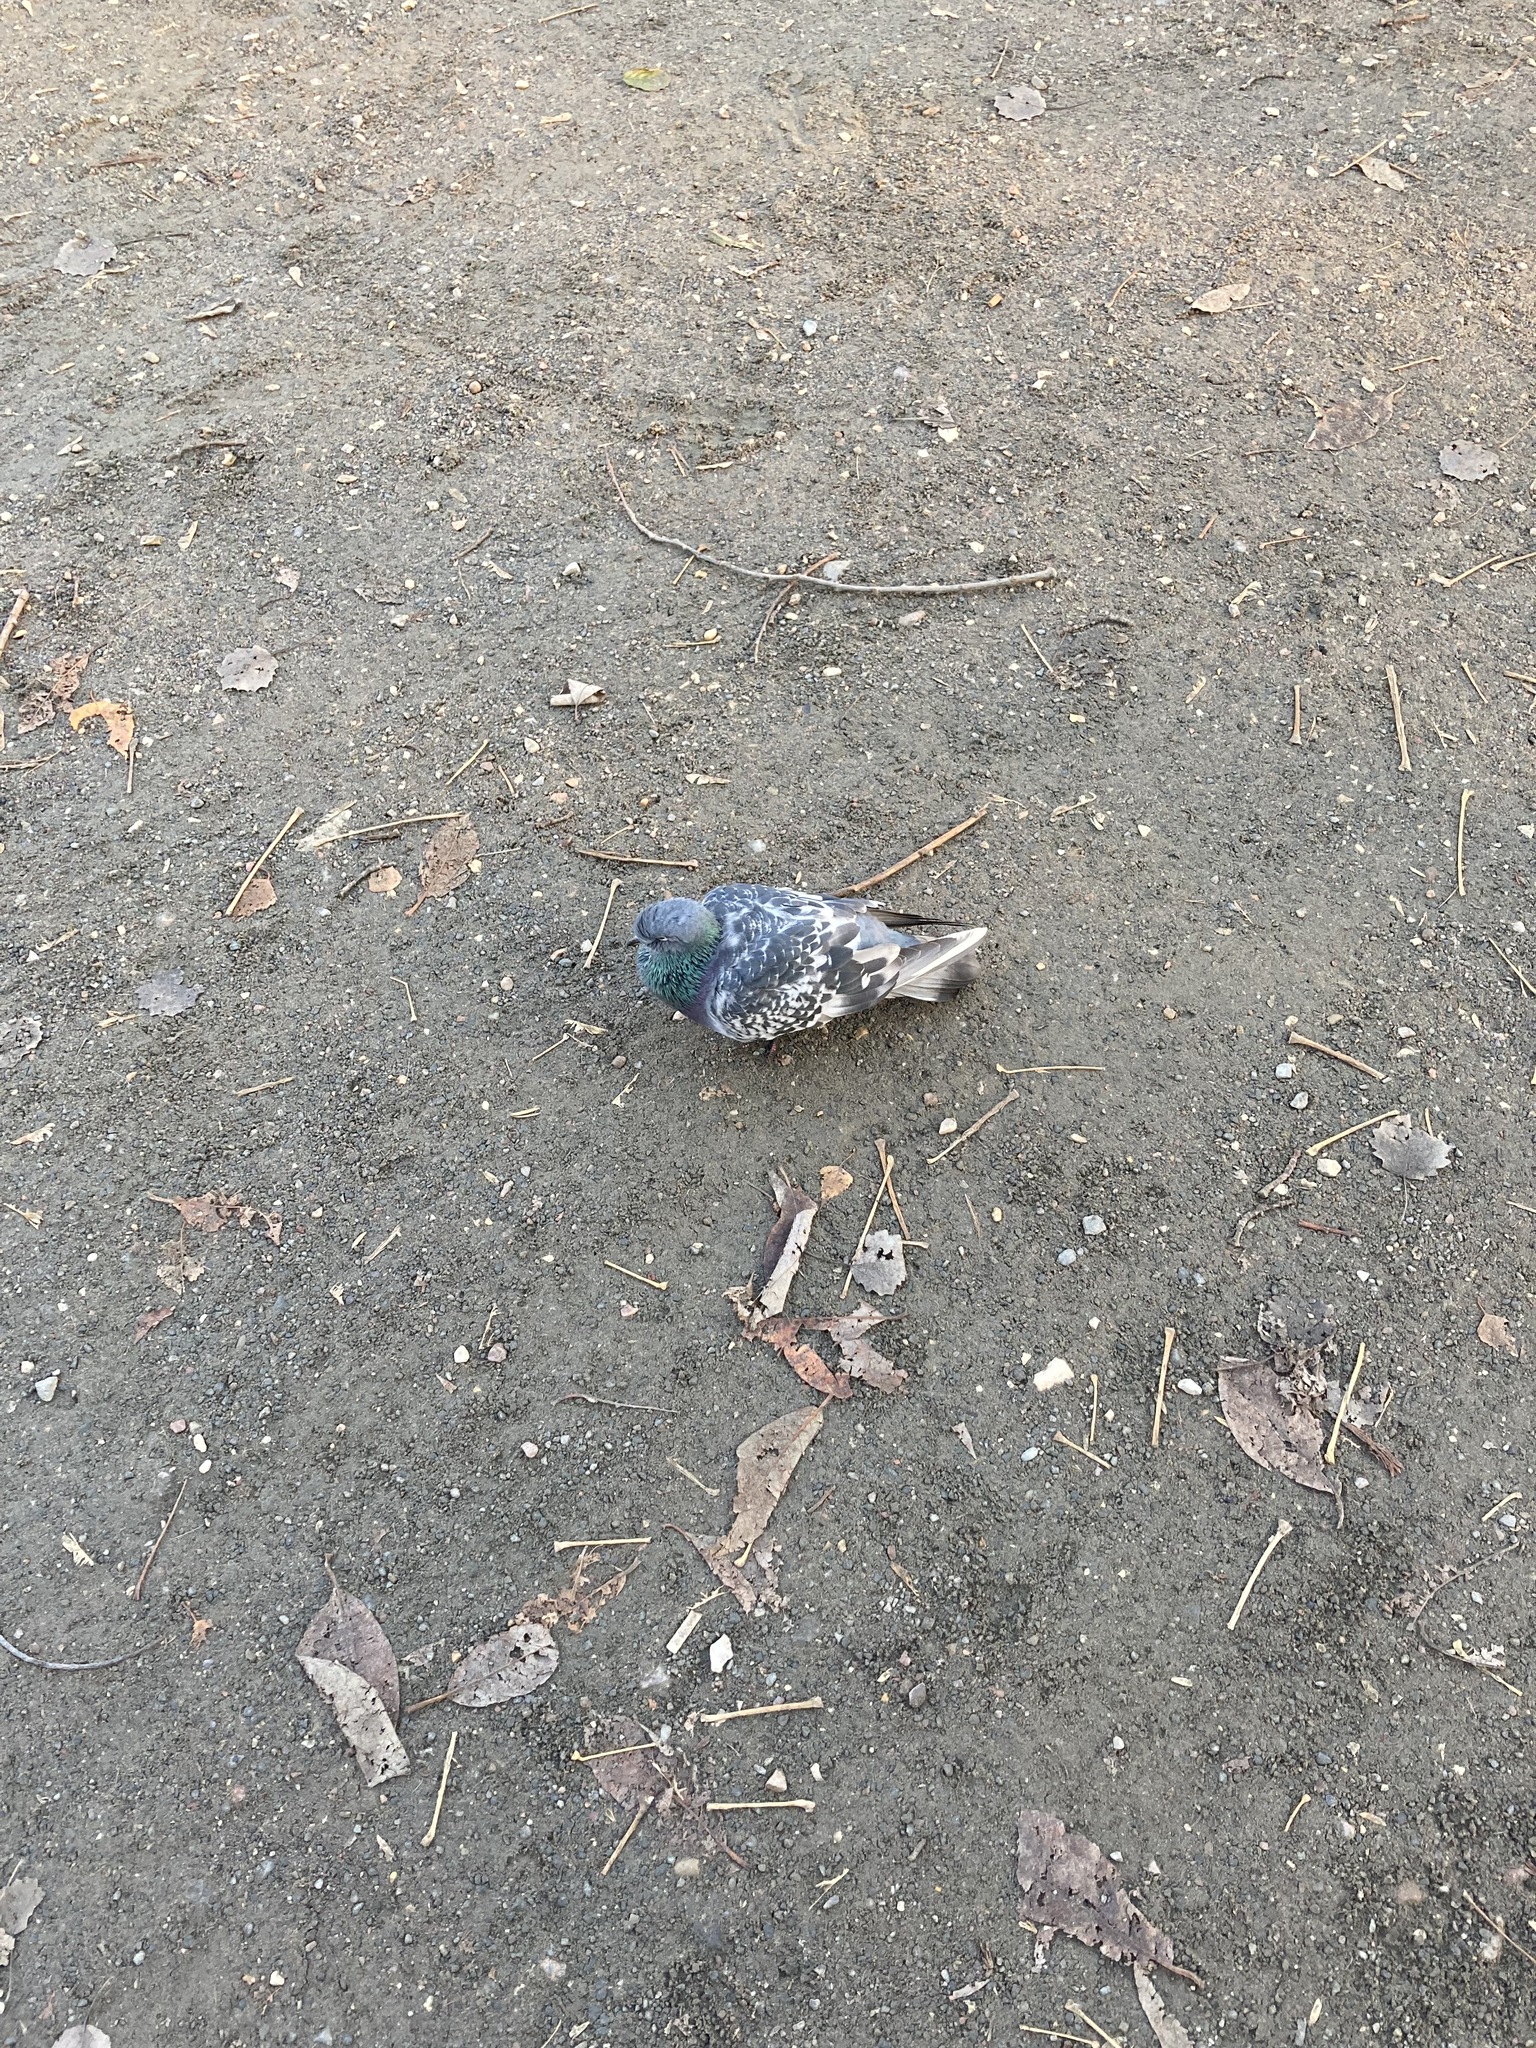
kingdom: Animalia
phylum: Chordata
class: Aves
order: Columbiformes
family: Columbidae
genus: Columba
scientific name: Columba livia
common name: Rock pigeon
